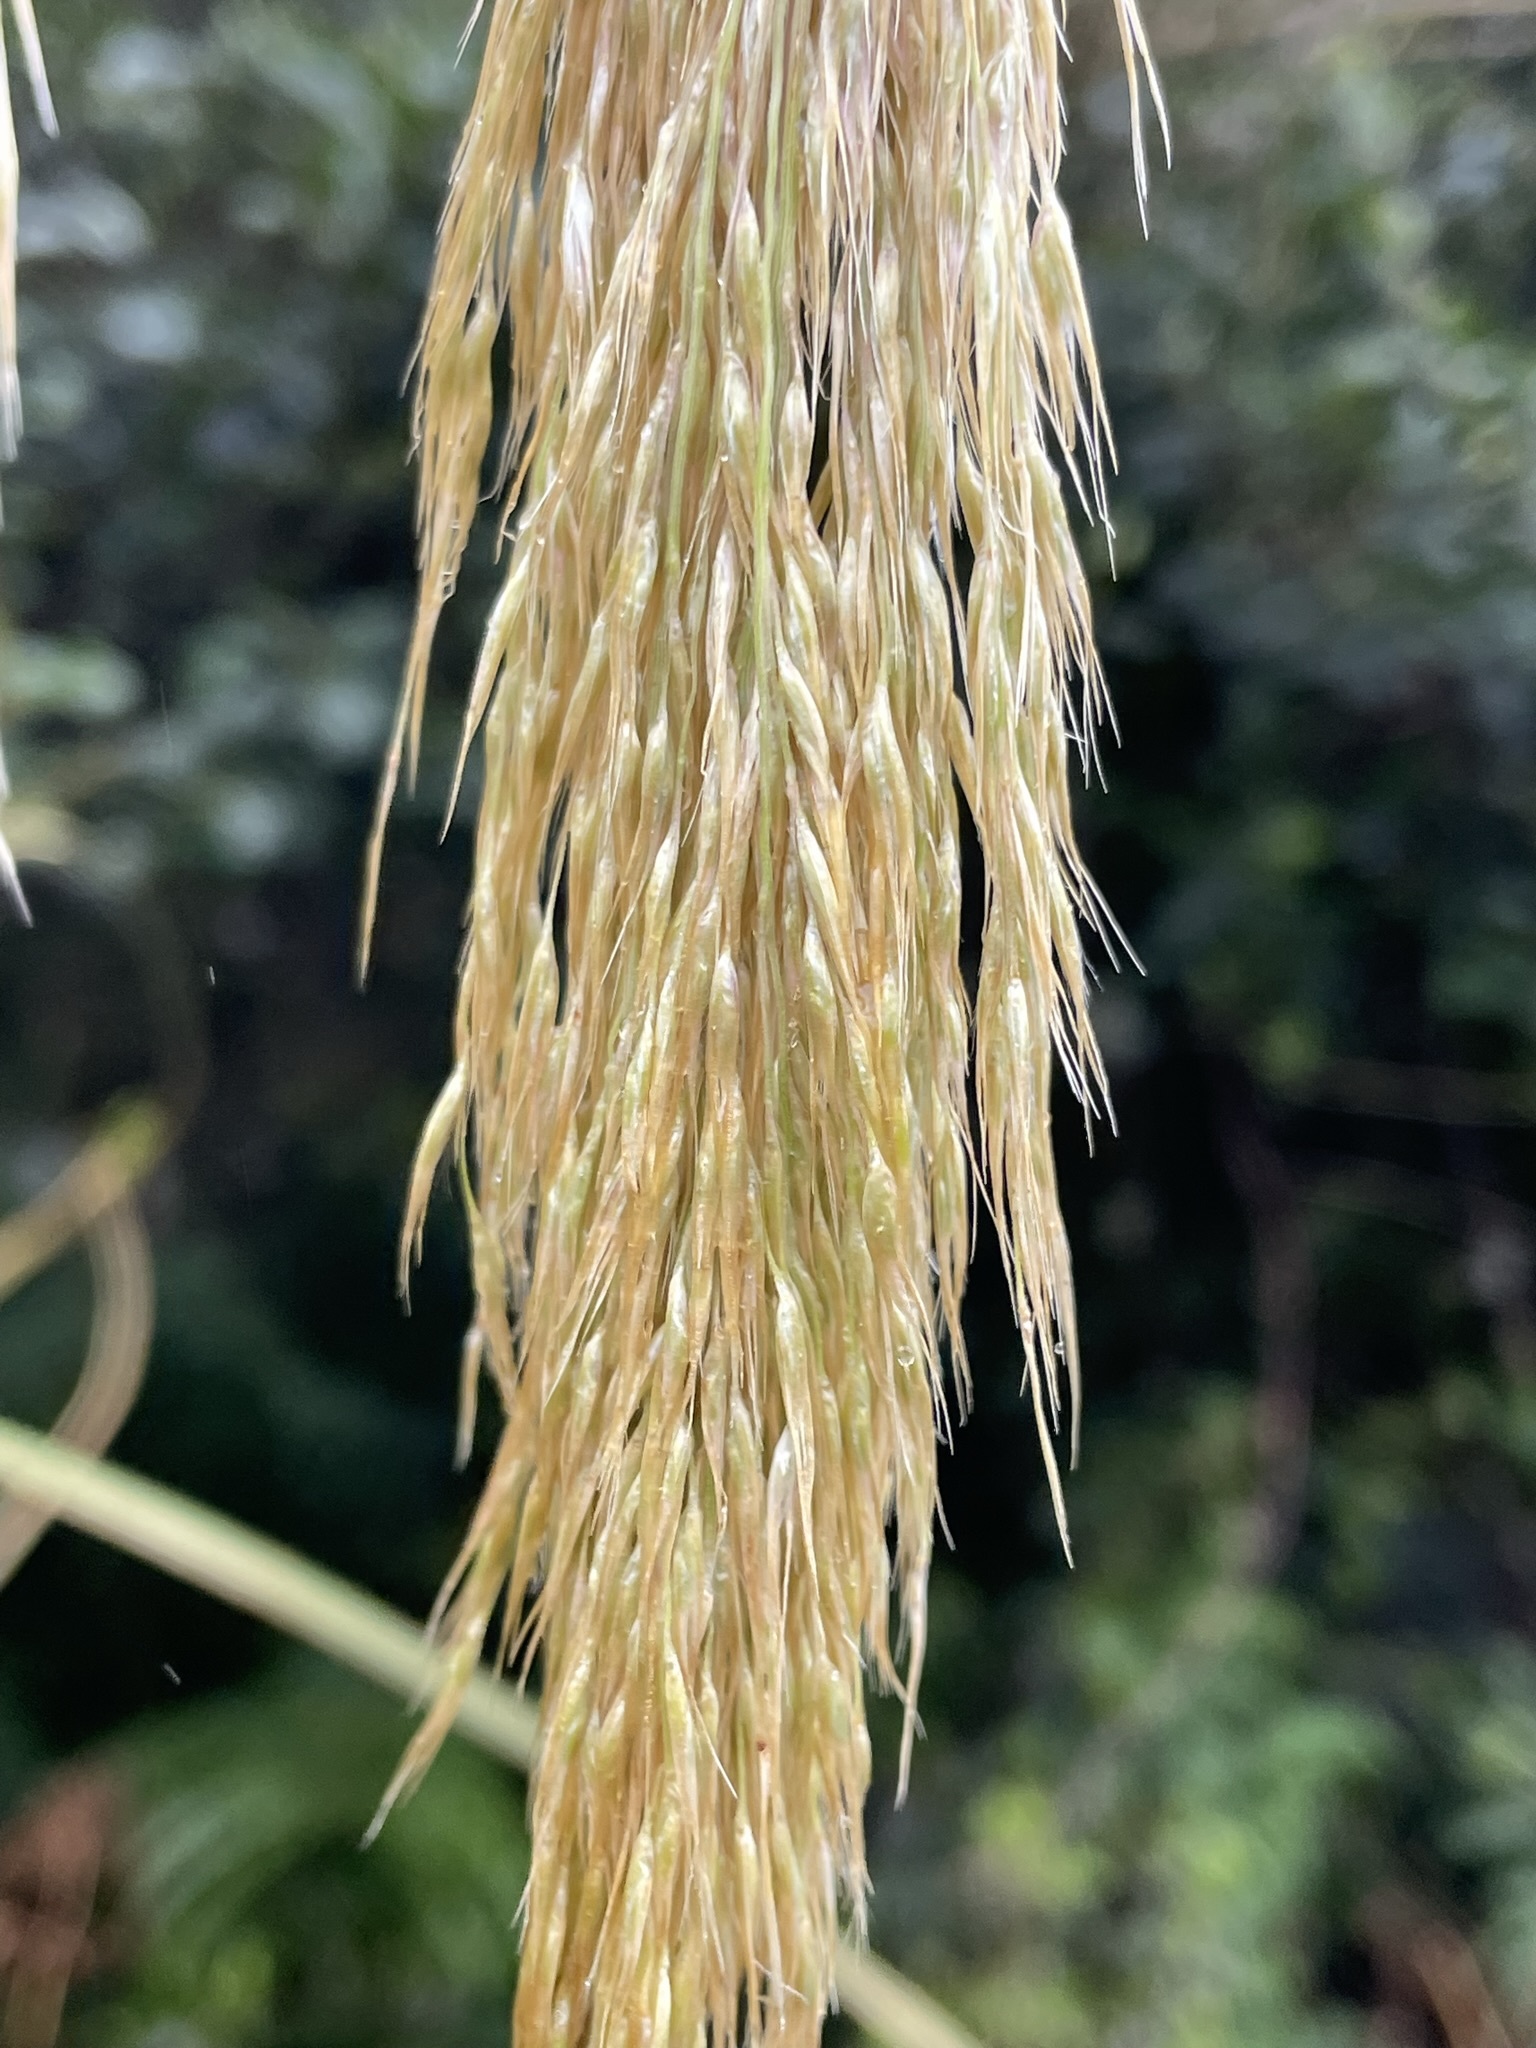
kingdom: Plantae
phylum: Tracheophyta
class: Liliopsida
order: Poales
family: Poaceae
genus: Austroderia
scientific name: Austroderia fulvida
